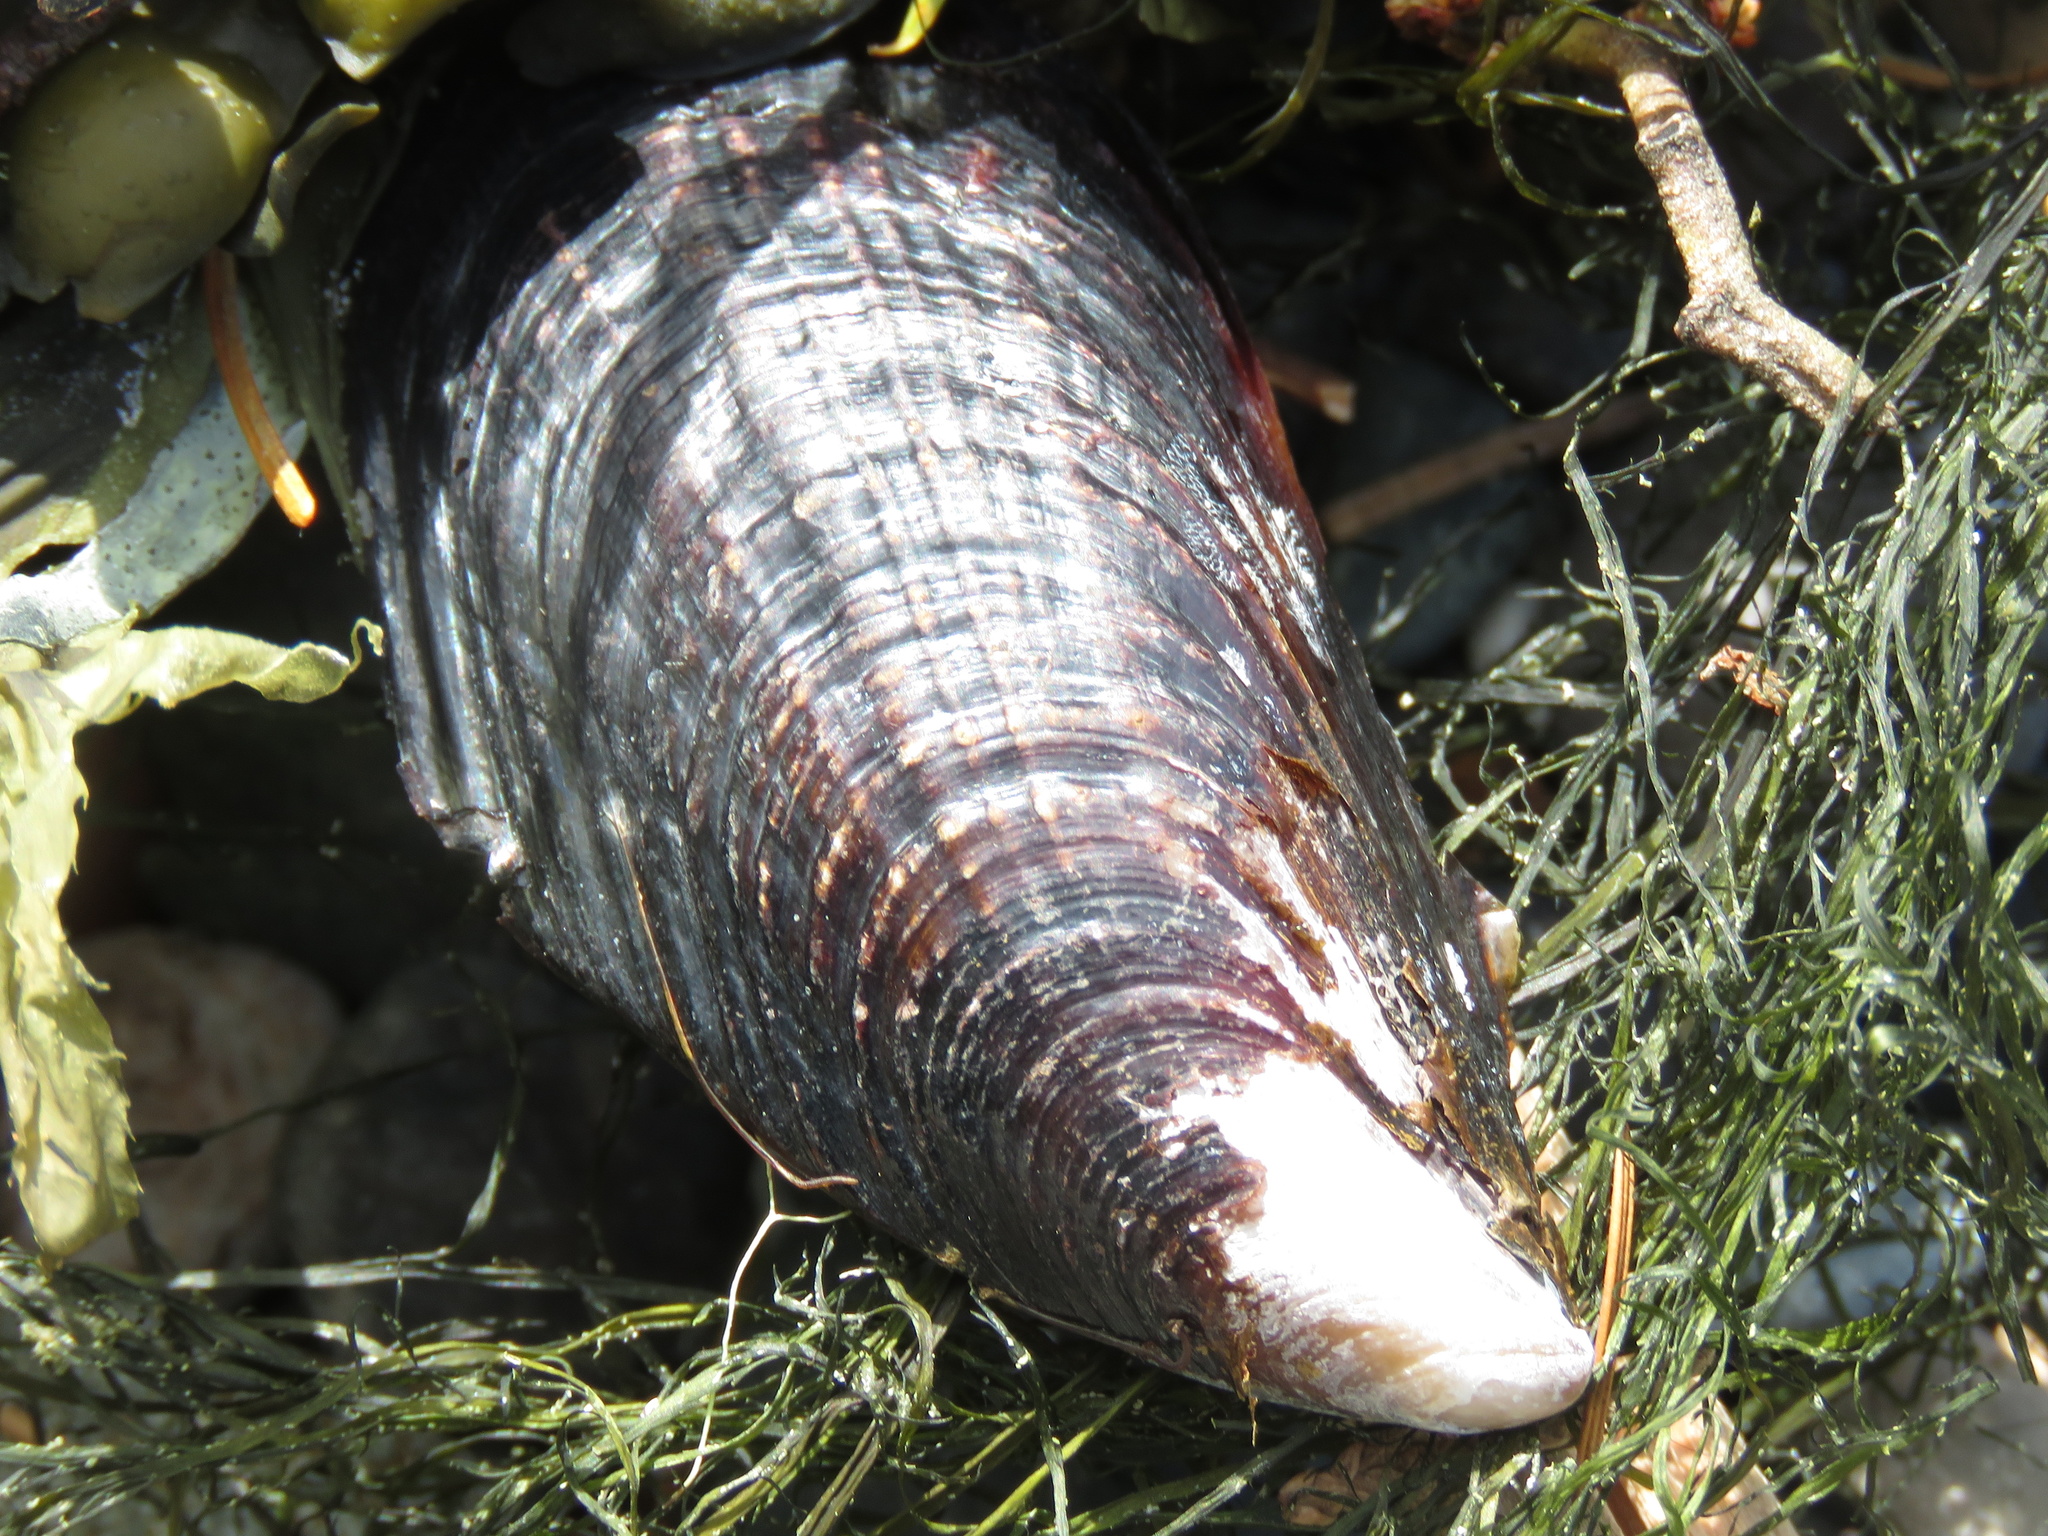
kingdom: Animalia
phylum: Mollusca
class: Bivalvia
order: Mytilida
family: Mytilidae
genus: Mytilus
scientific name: Mytilus californianus
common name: California mussel
